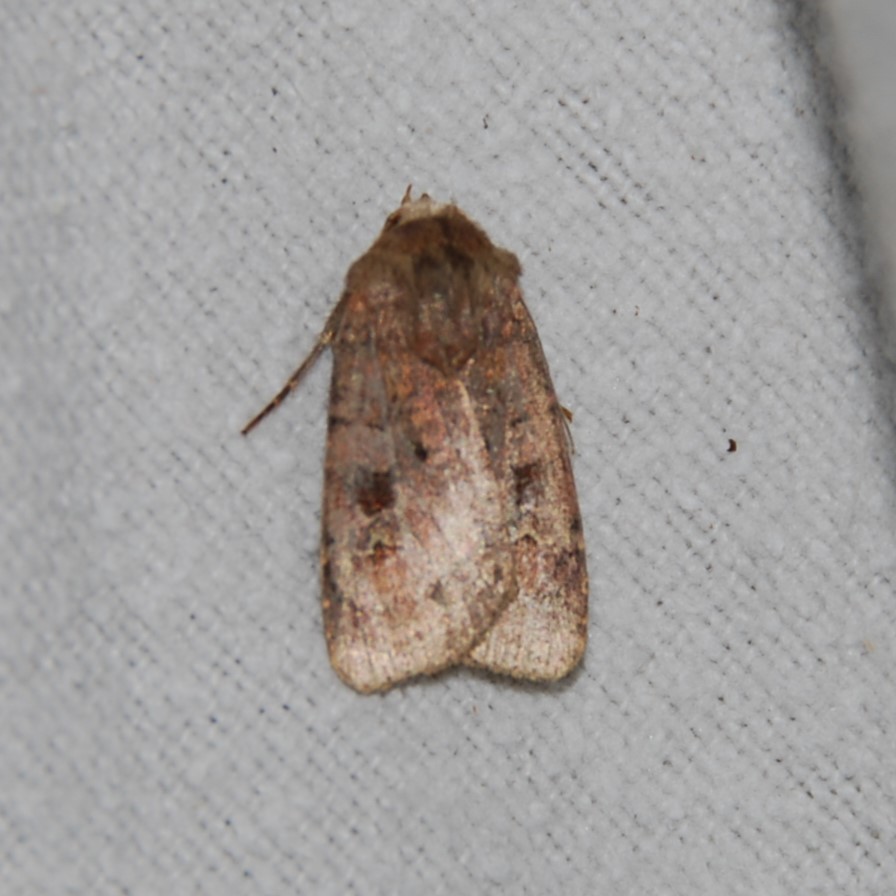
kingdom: Animalia
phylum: Arthropoda
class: Insecta
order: Lepidoptera
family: Noctuidae
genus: Diarsia
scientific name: Diarsia rubi
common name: Small square-spot
